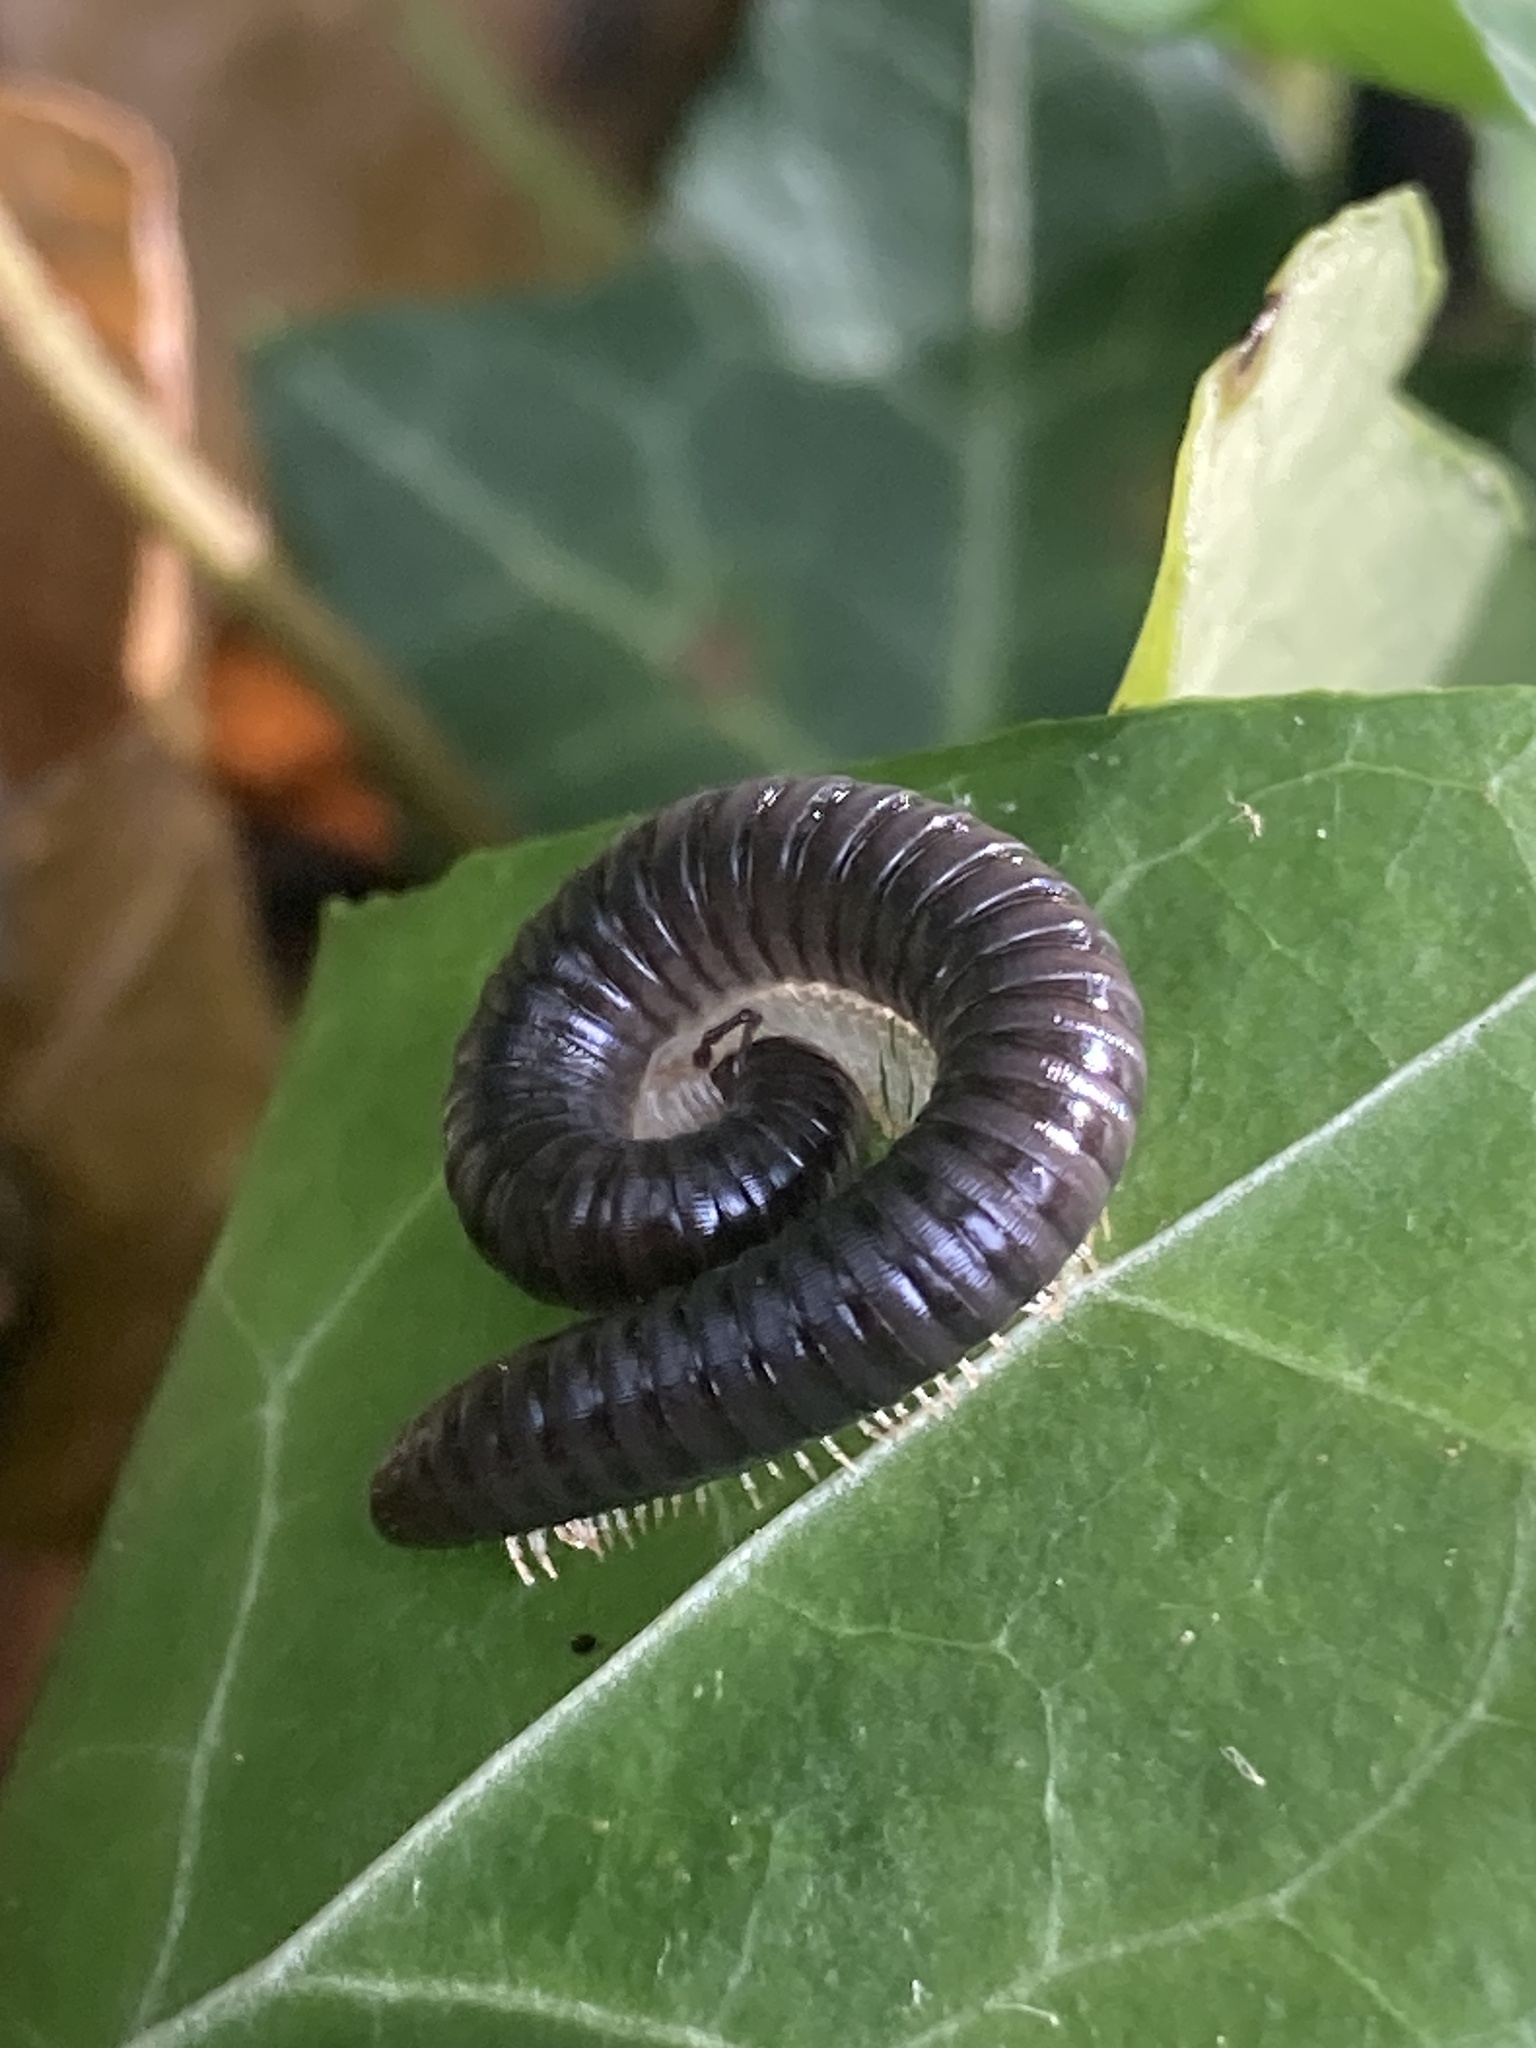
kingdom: Animalia
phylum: Arthropoda
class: Diplopoda
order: Julida
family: Julidae
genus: Tachypodoiulus
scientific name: Tachypodoiulus niger
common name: White-legged snake millipede
